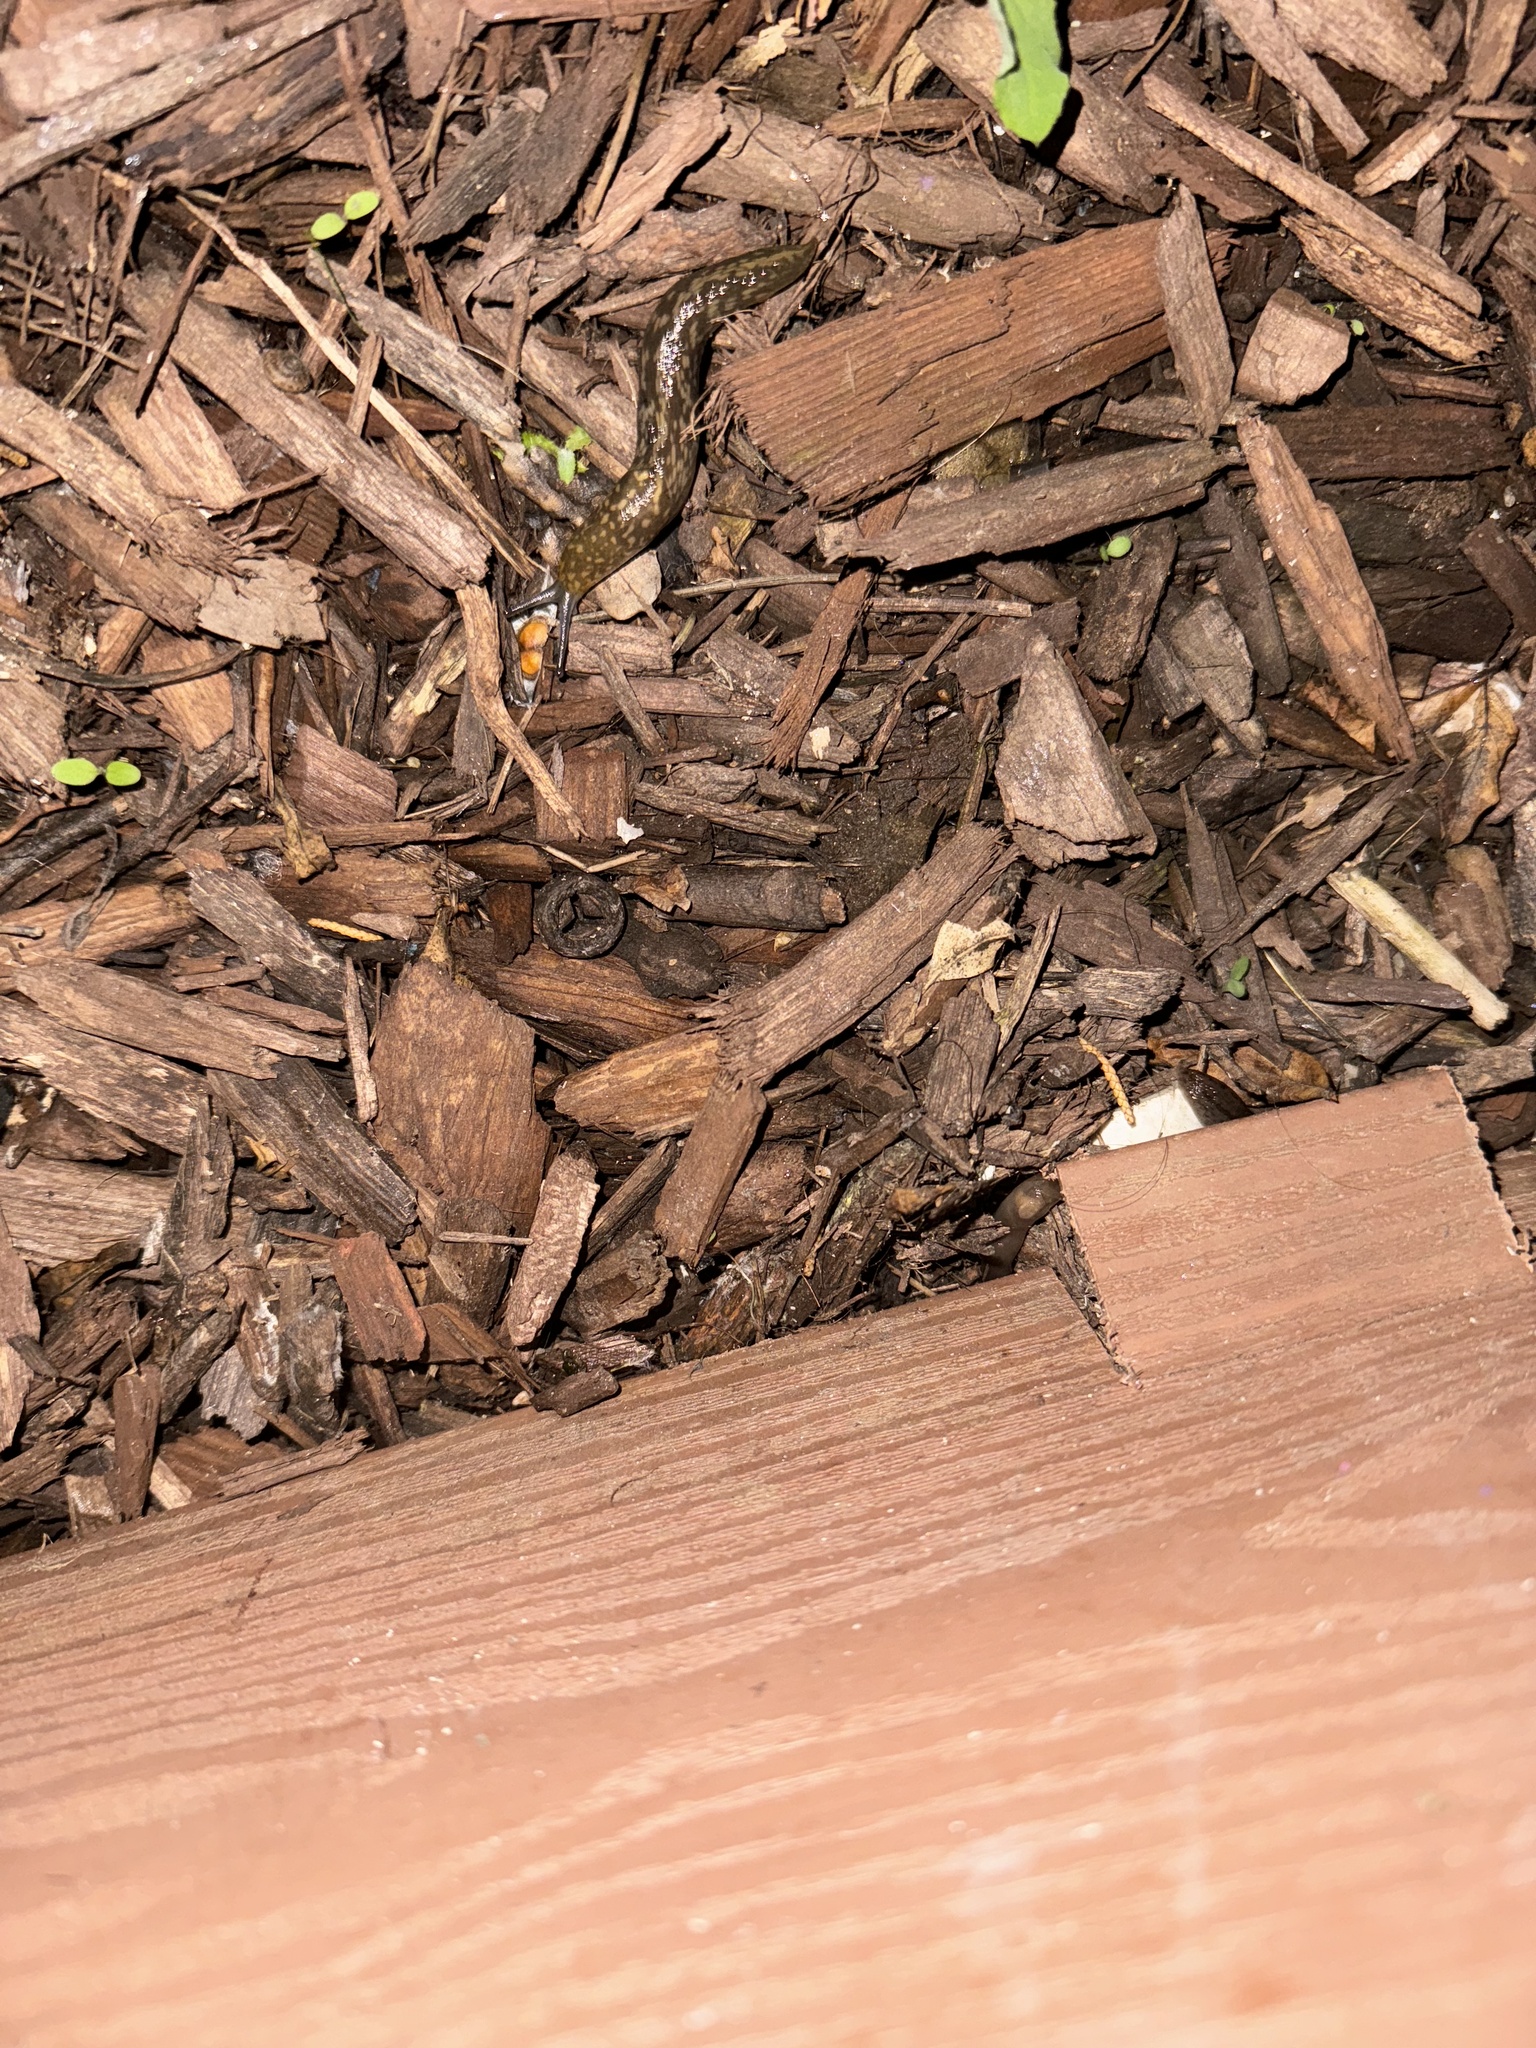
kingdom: Animalia
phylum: Mollusca
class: Gastropoda
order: Stylommatophora
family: Limacidae
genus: Limacus
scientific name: Limacus flavus
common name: Yellow gardenslug
